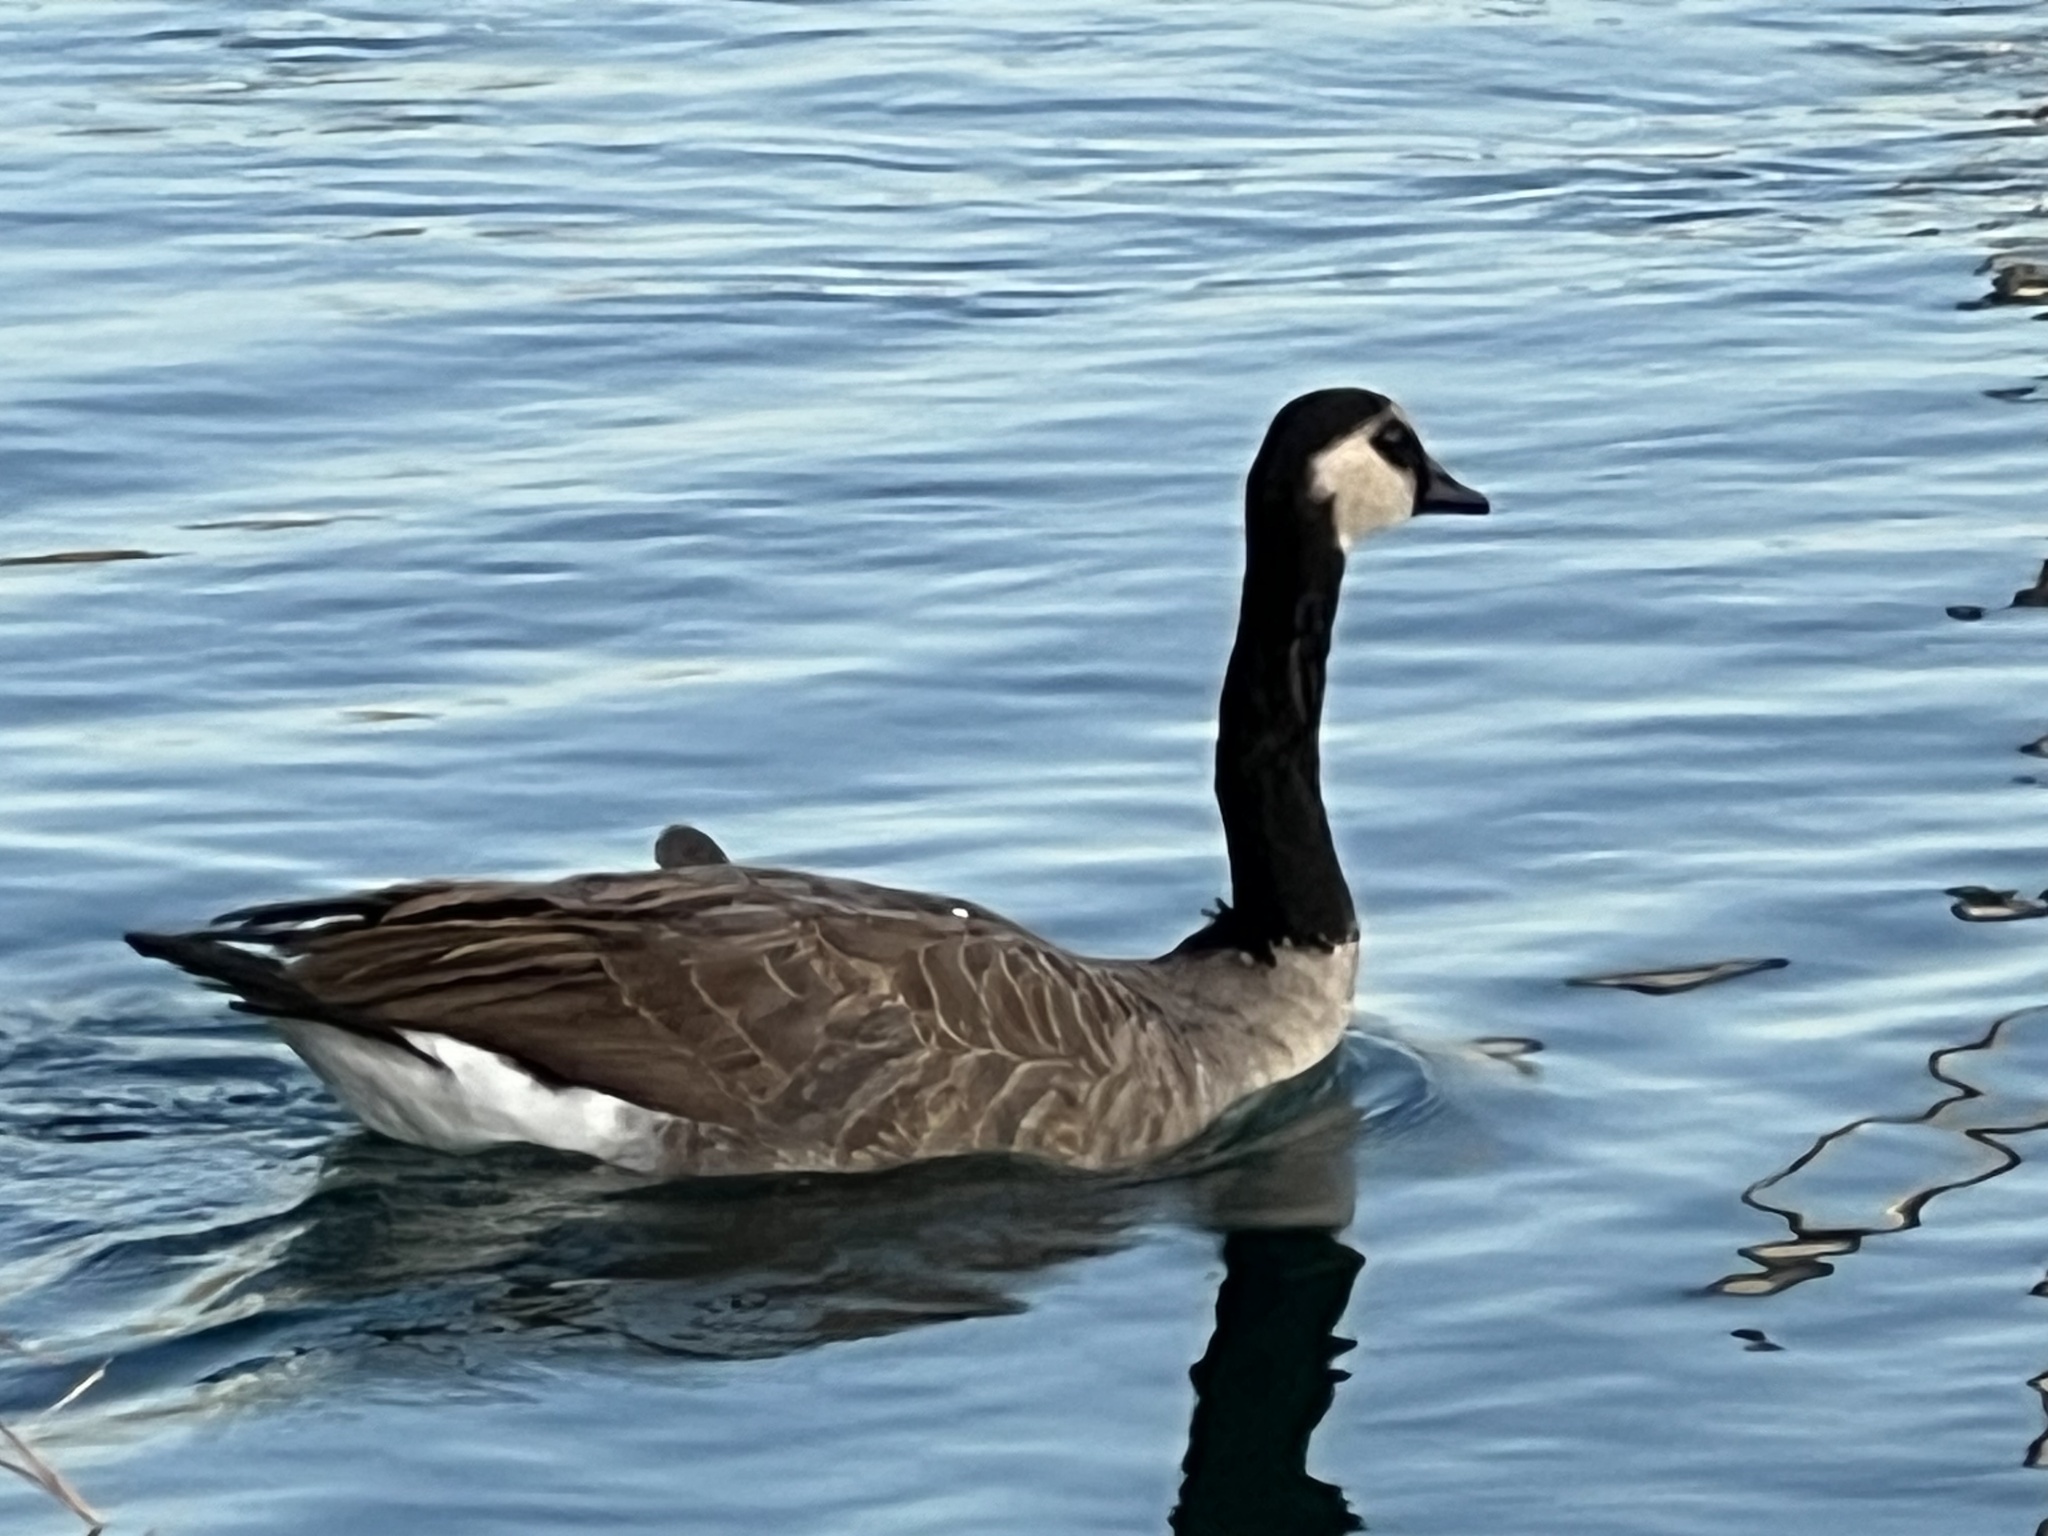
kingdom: Animalia
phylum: Chordata
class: Aves
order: Anseriformes
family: Anatidae
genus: Branta
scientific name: Branta canadensis
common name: Canada goose
